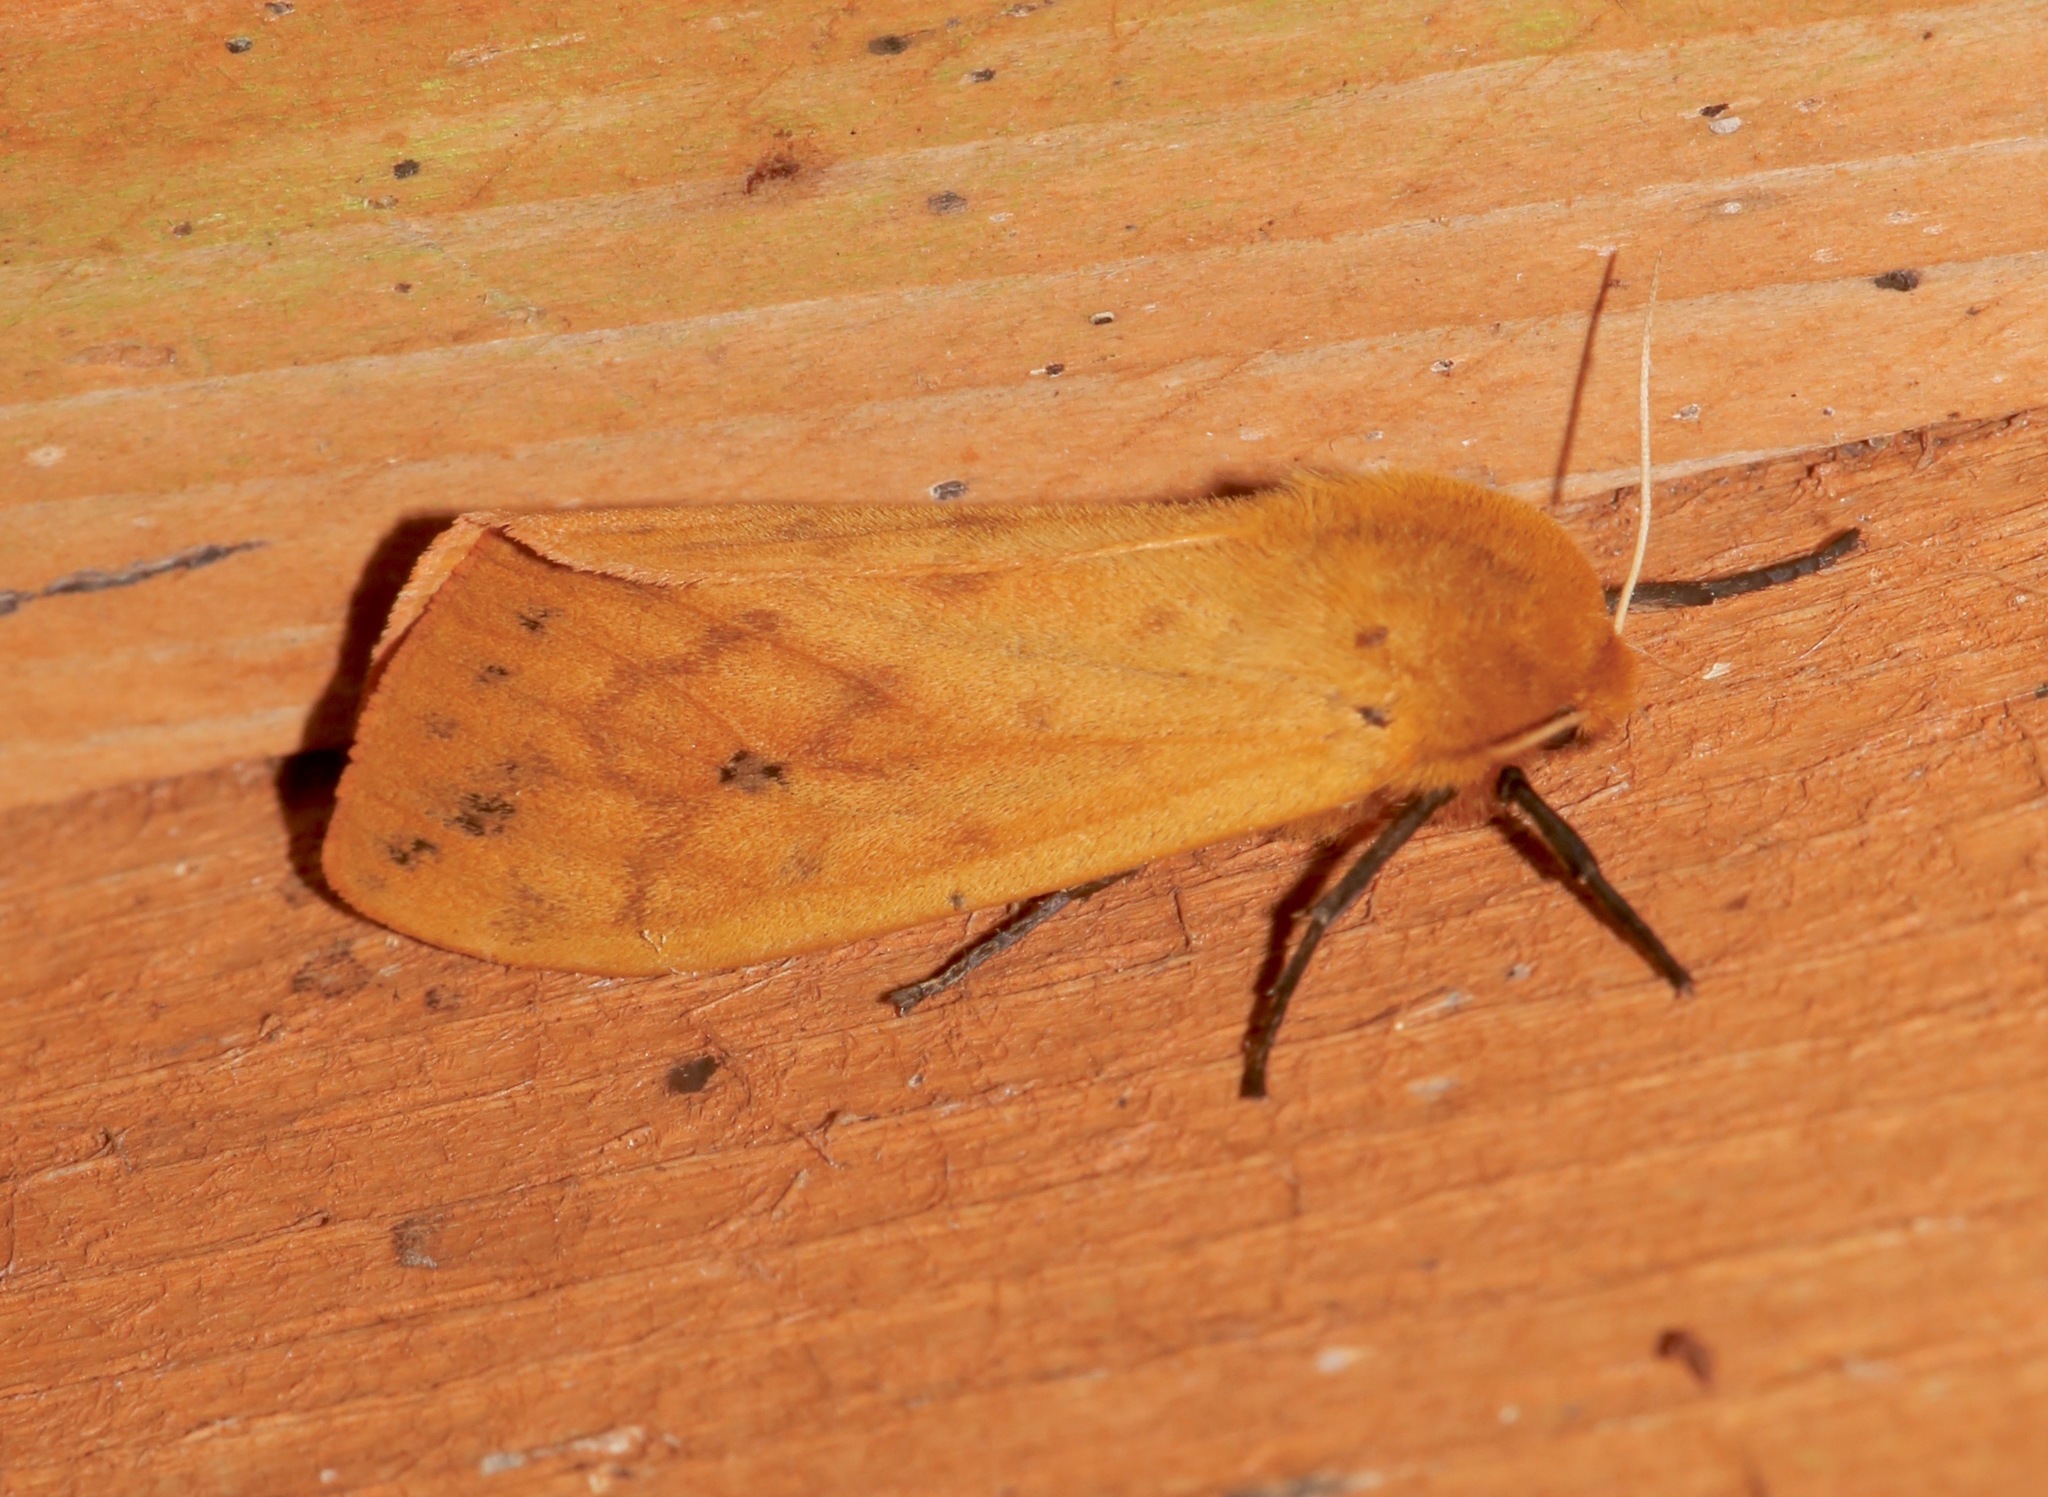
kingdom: Animalia
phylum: Arthropoda
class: Insecta
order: Lepidoptera
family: Erebidae
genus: Pyrrharctia
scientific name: Pyrrharctia isabella
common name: Isabella tiger moth
